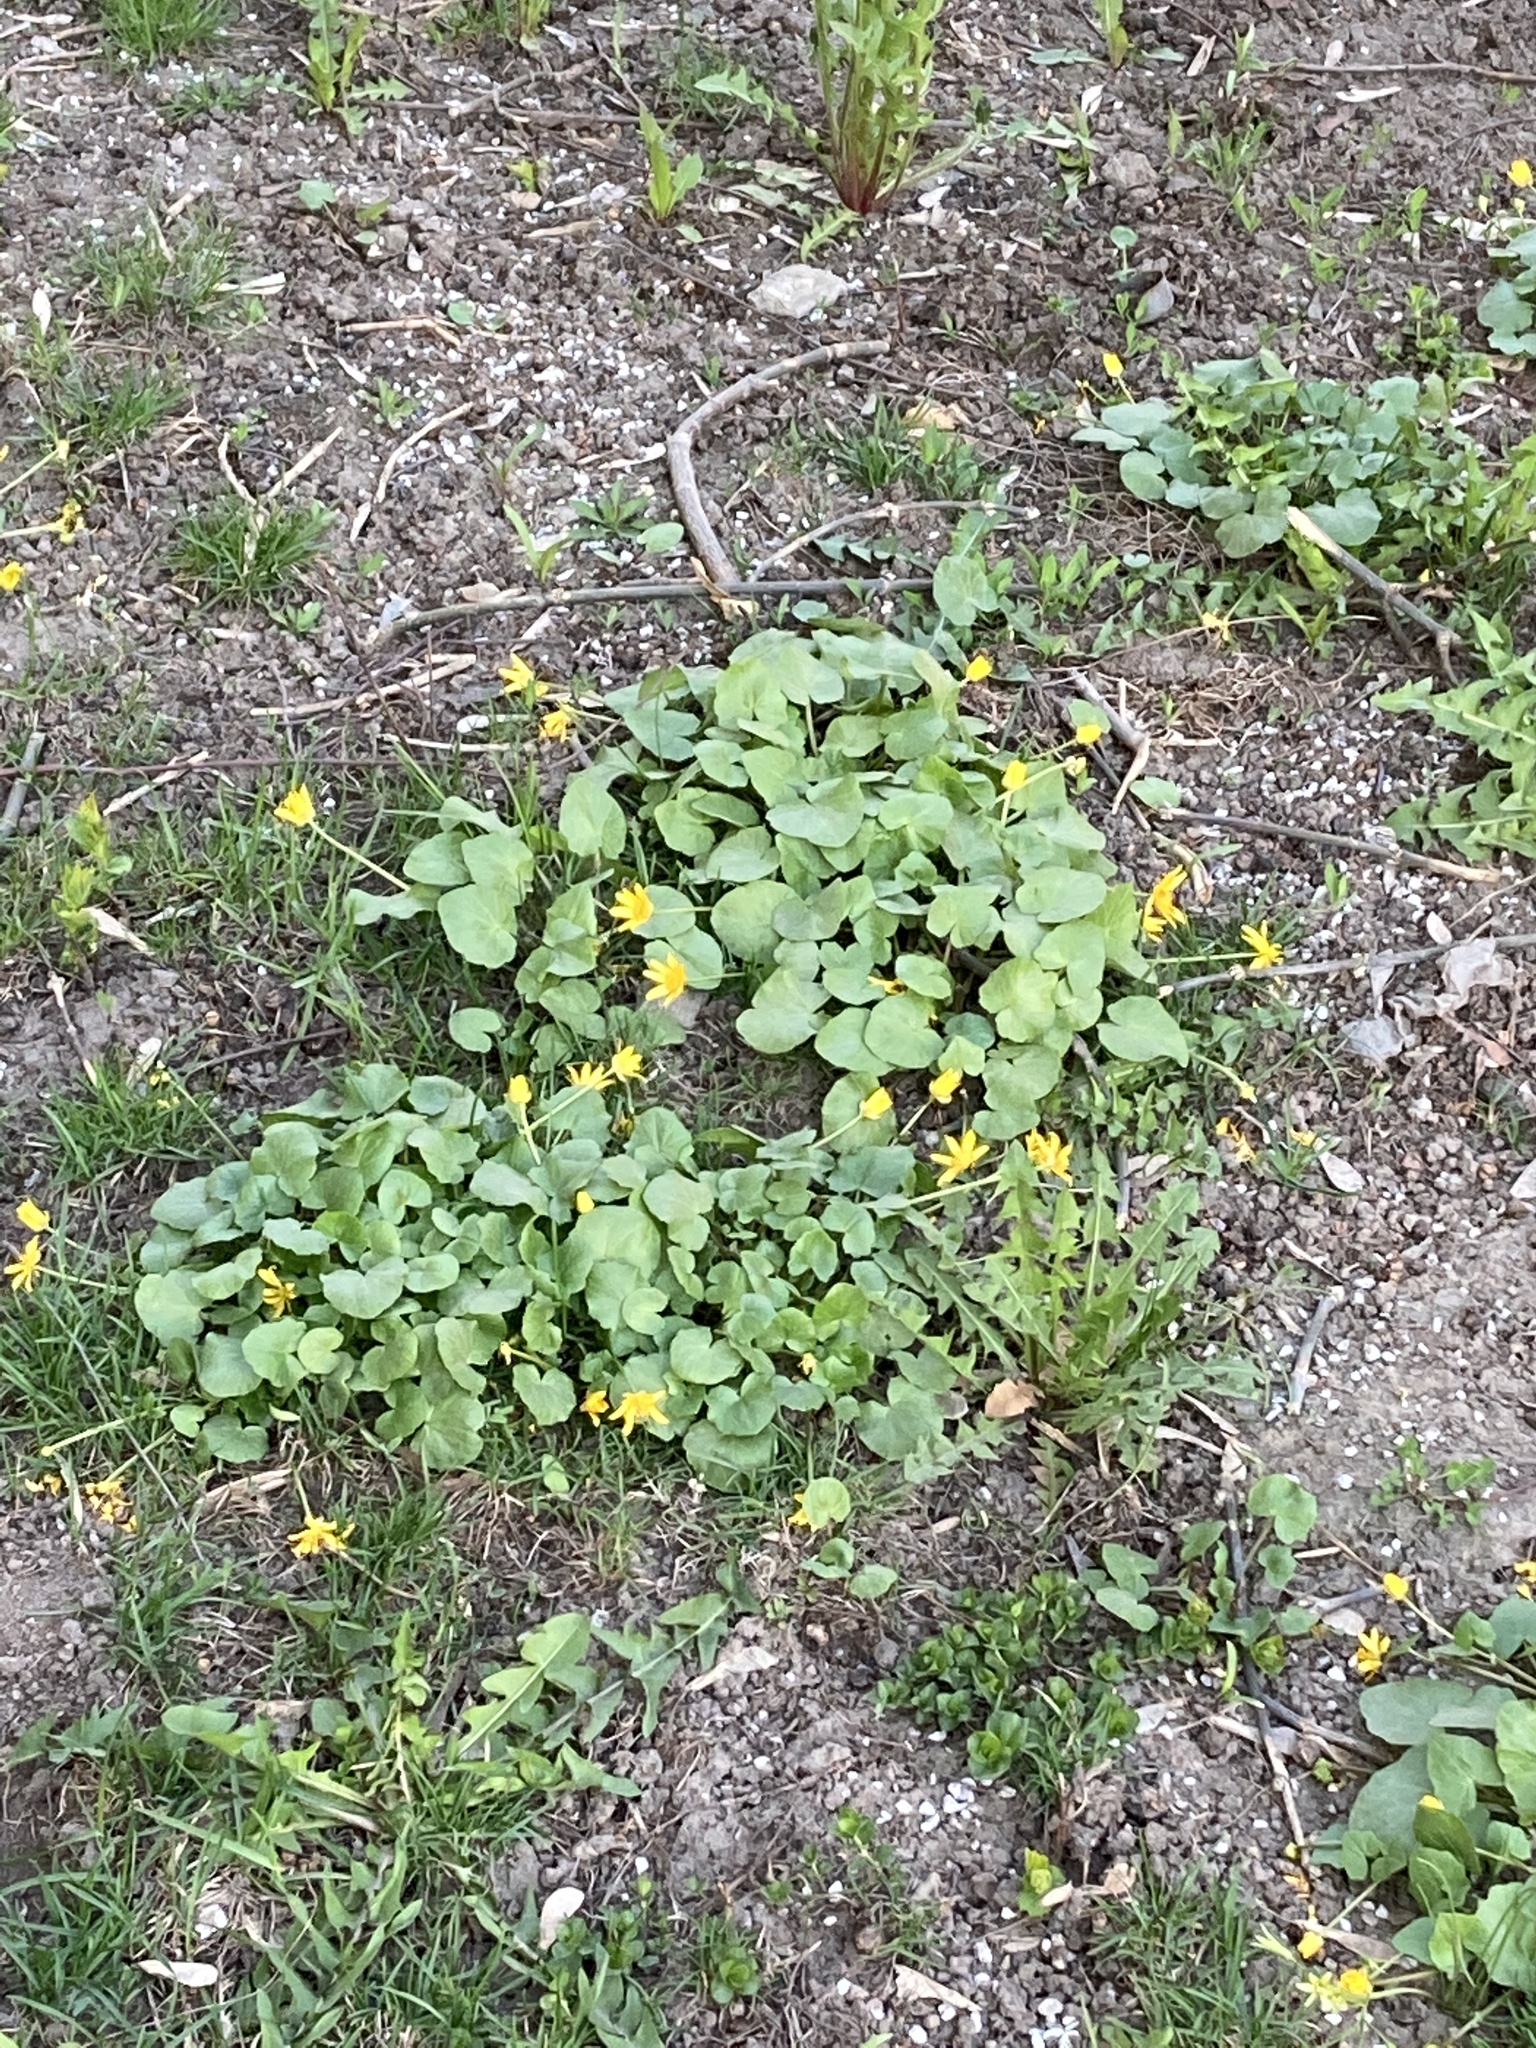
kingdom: Plantae
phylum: Tracheophyta
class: Magnoliopsida
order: Ranunculales
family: Ranunculaceae
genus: Ficaria
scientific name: Ficaria verna
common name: Lesser celandine
